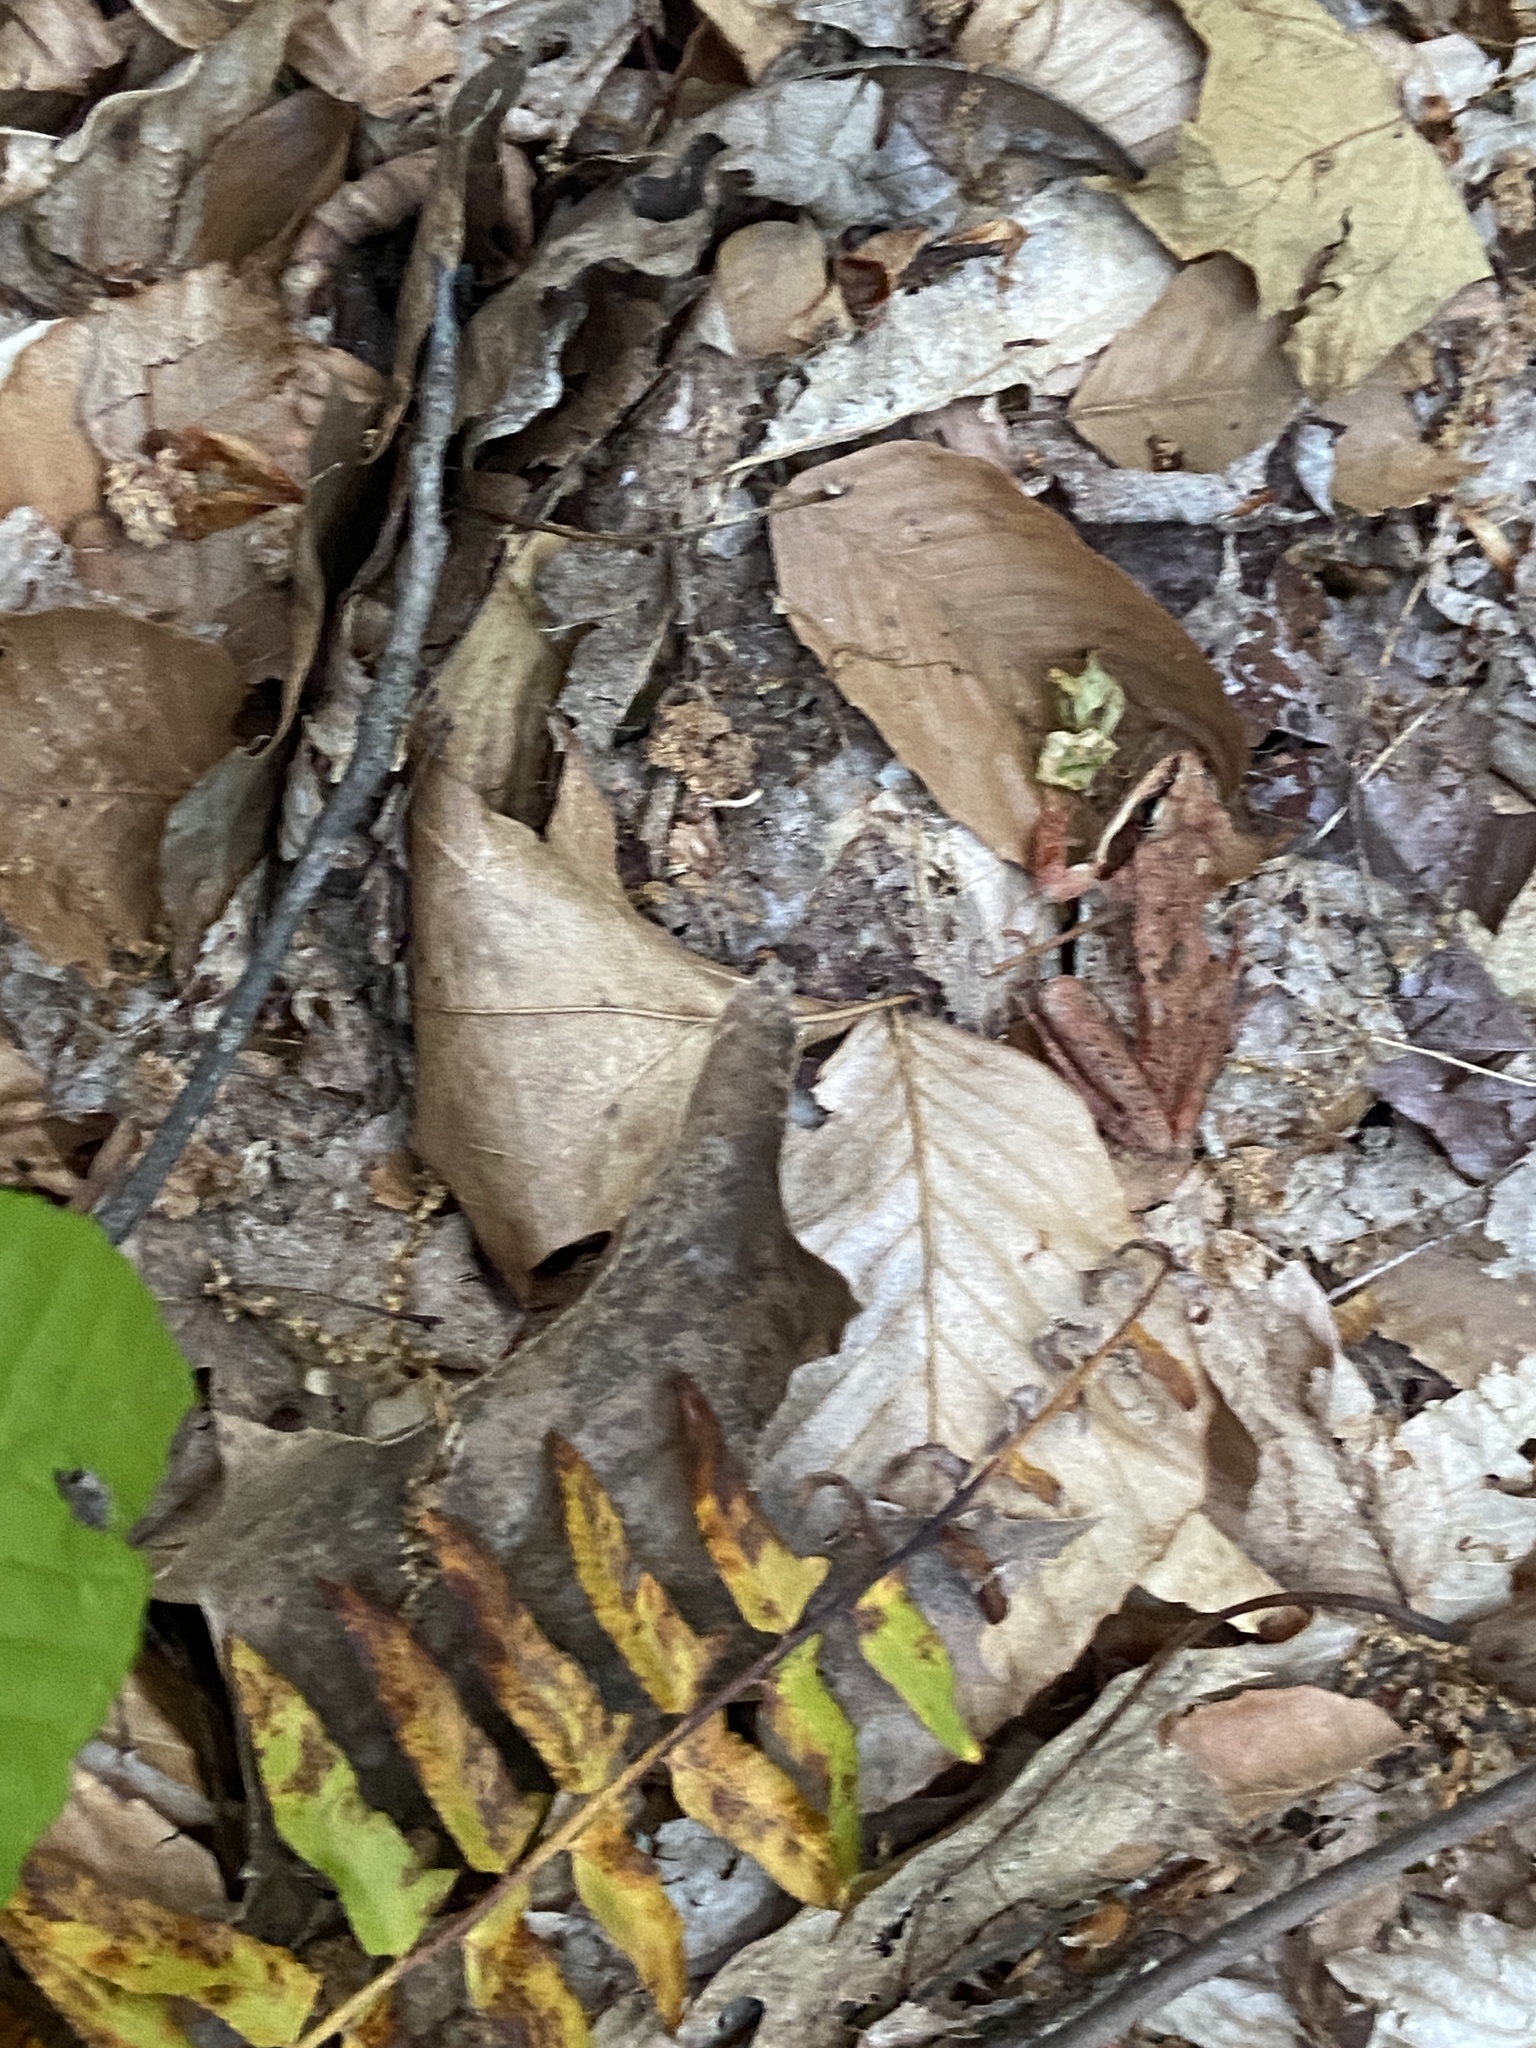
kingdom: Animalia
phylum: Chordata
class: Amphibia
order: Anura
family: Ranidae
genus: Lithobates
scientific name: Lithobates sylvaticus
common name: Wood frog
